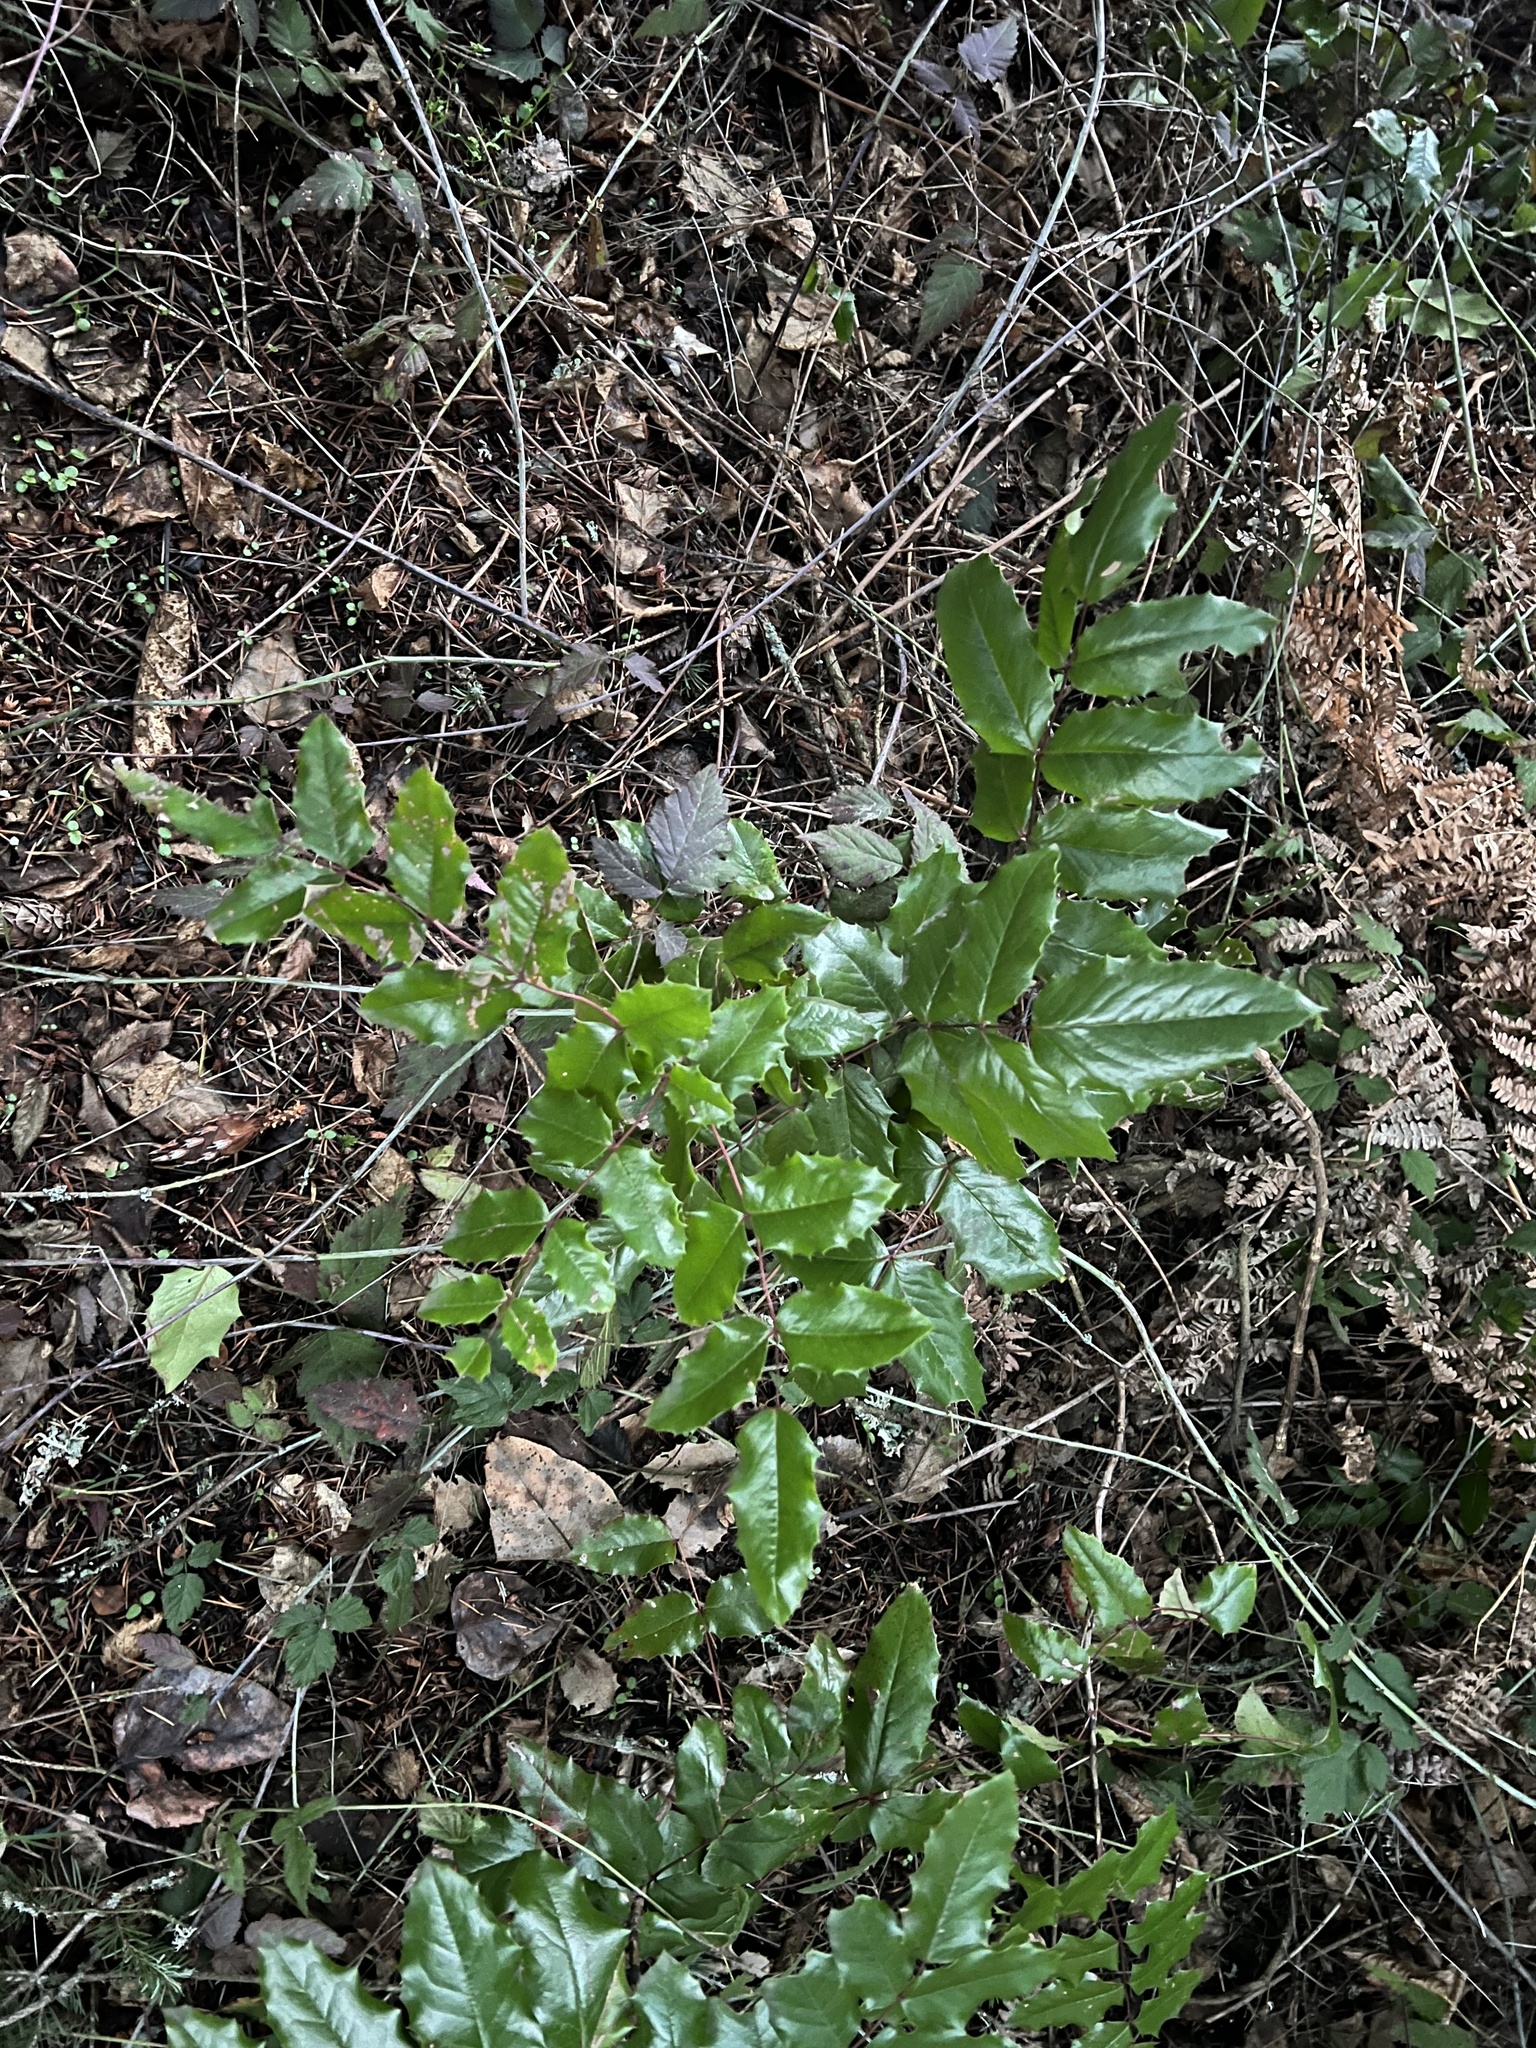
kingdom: Plantae
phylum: Tracheophyta
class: Magnoliopsida
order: Ranunculales
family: Berberidaceae
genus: Mahonia
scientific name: Mahonia aquifolium
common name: Oregon-grape
